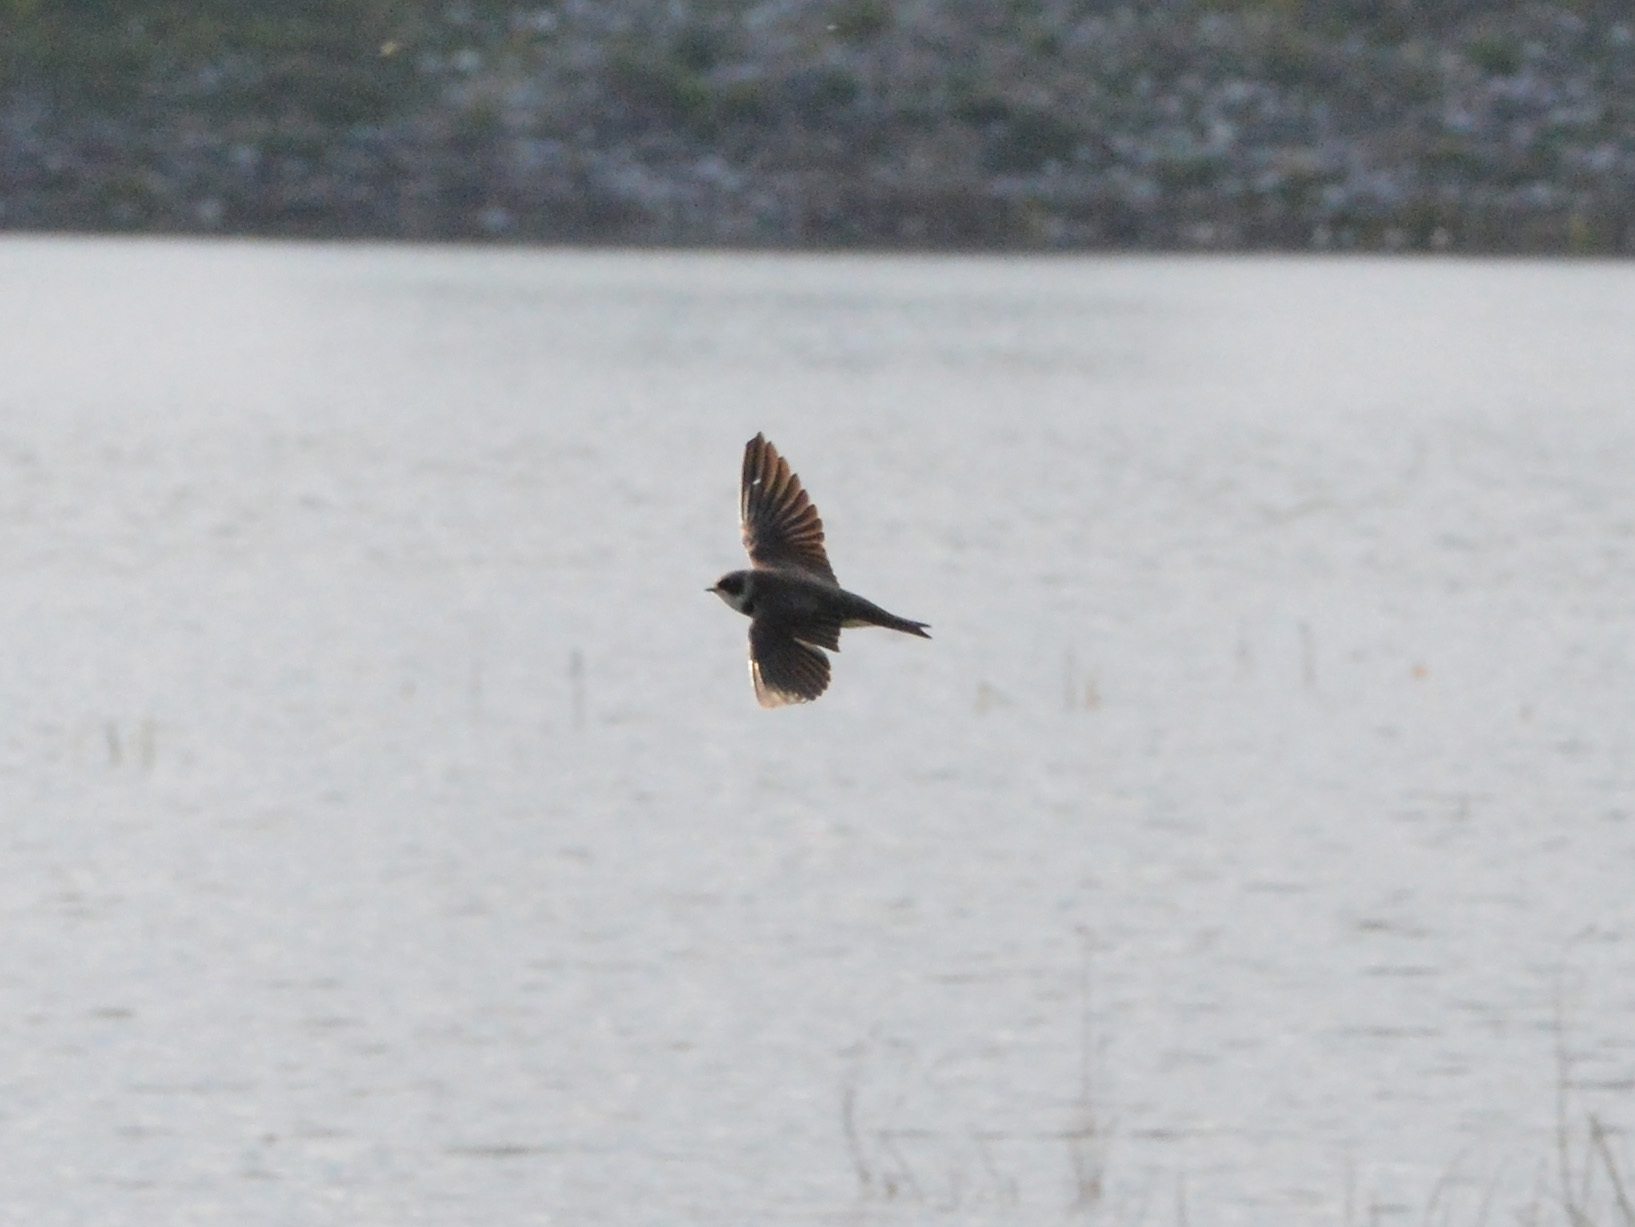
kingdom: Animalia
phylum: Chordata
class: Aves
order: Passeriformes
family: Hirundinidae
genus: Riparia
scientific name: Riparia riparia
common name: Sand martin
